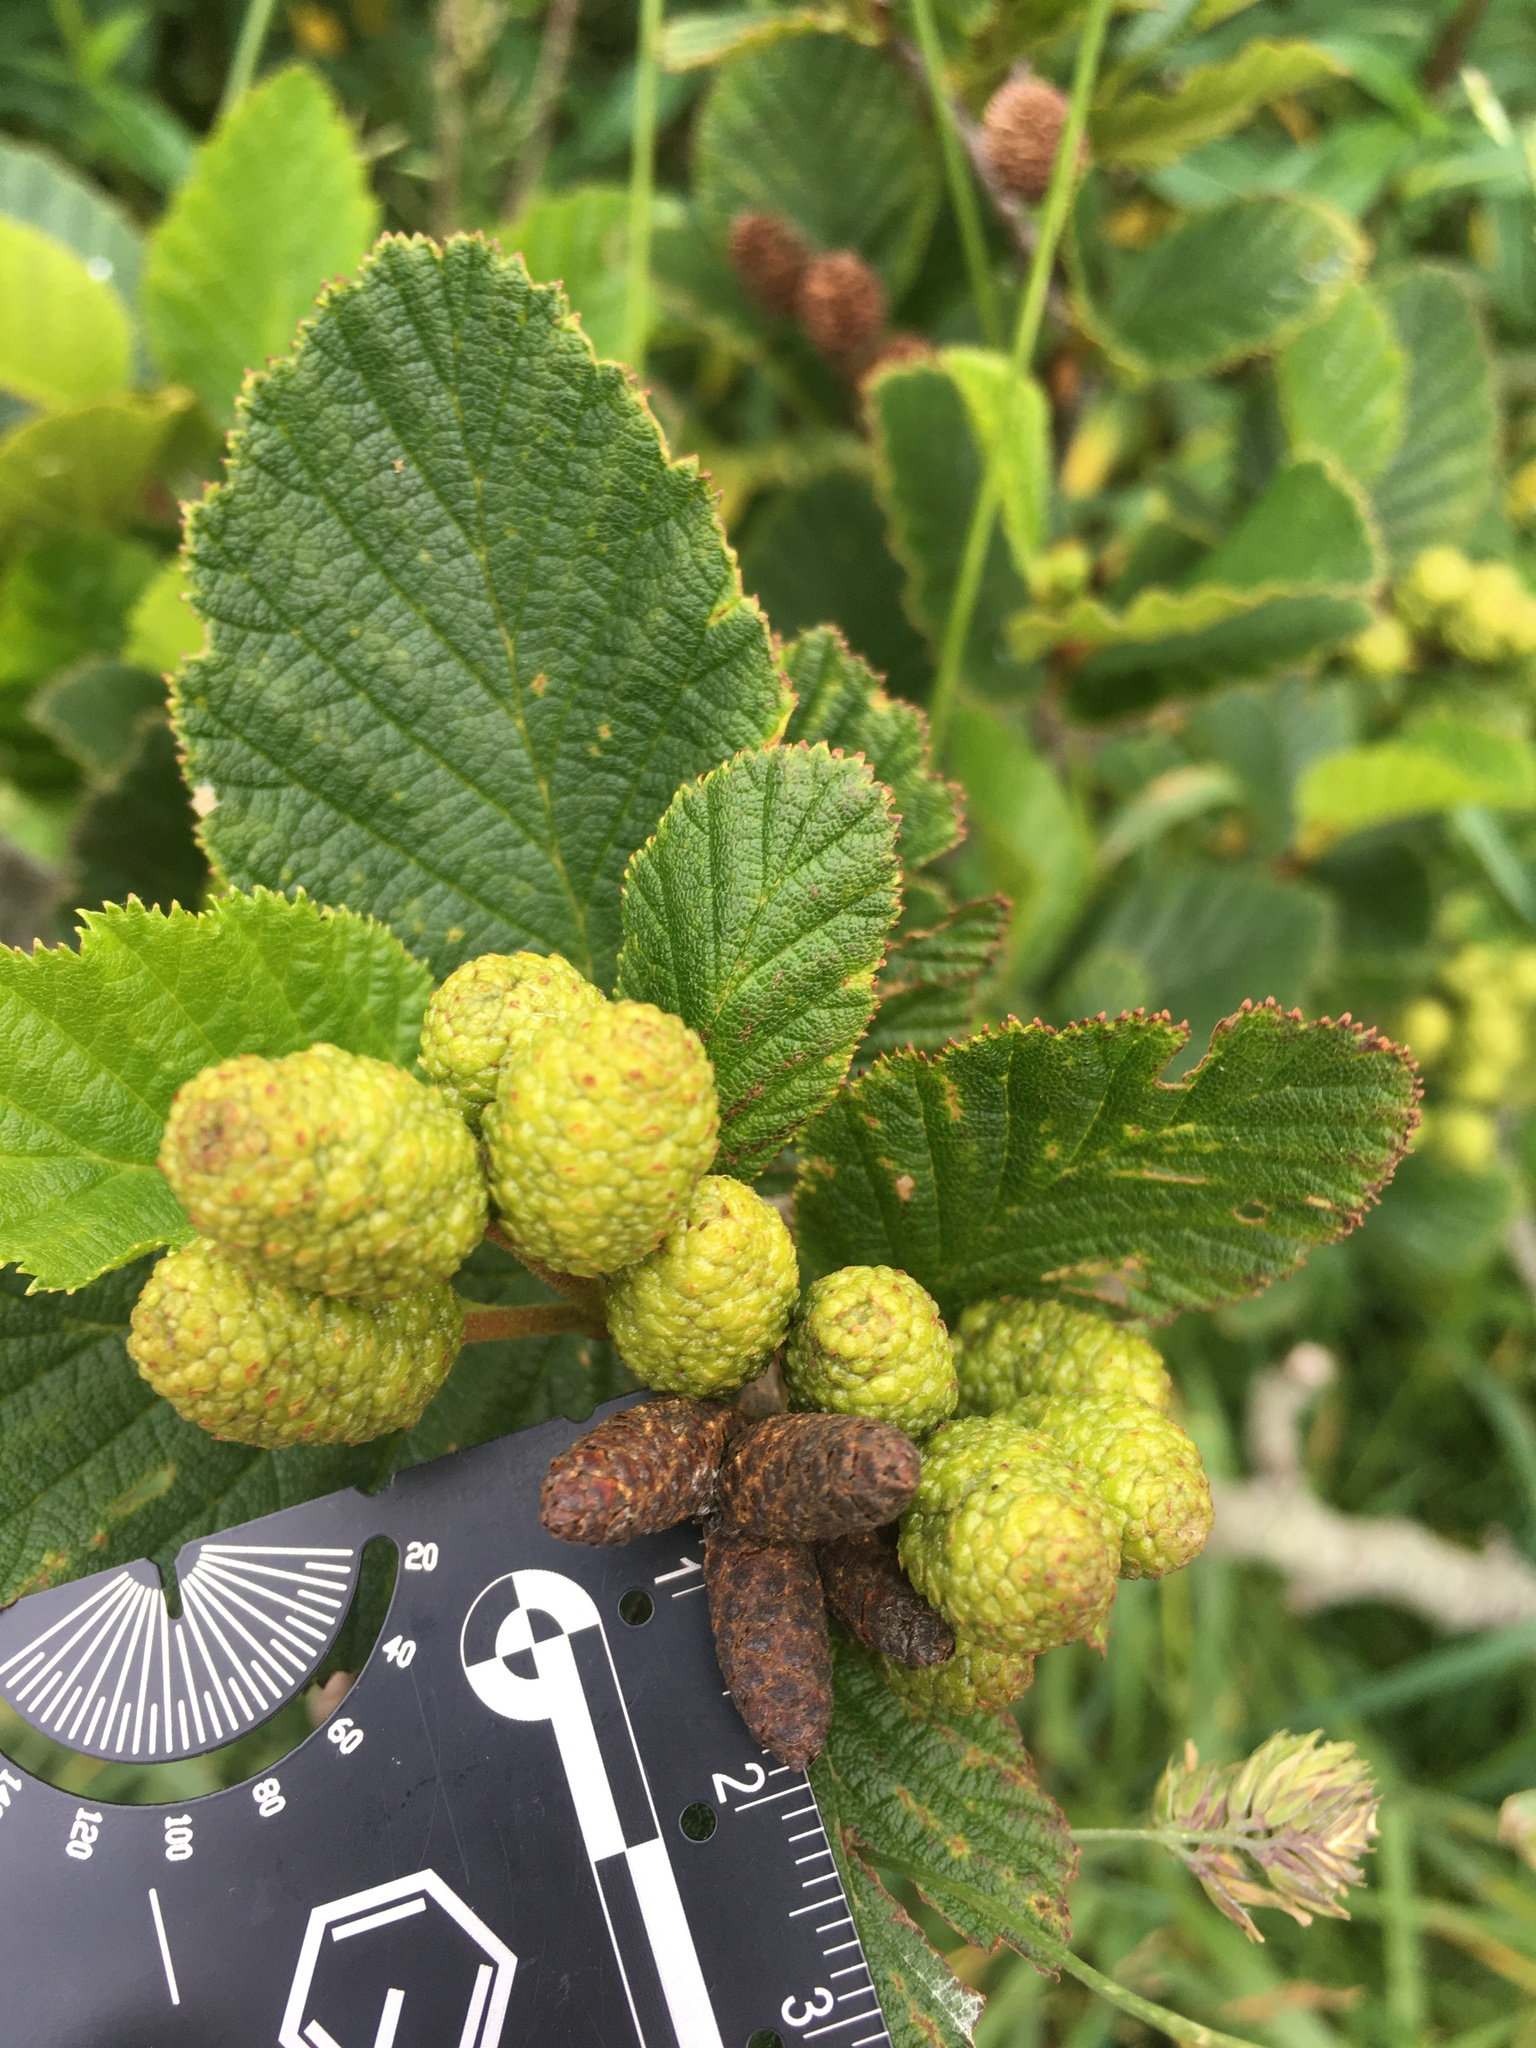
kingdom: Plantae
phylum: Tracheophyta
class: Magnoliopsida
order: Fagales
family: Betulaceae
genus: Alnus
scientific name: Alnus alnobetula
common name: Green alder
